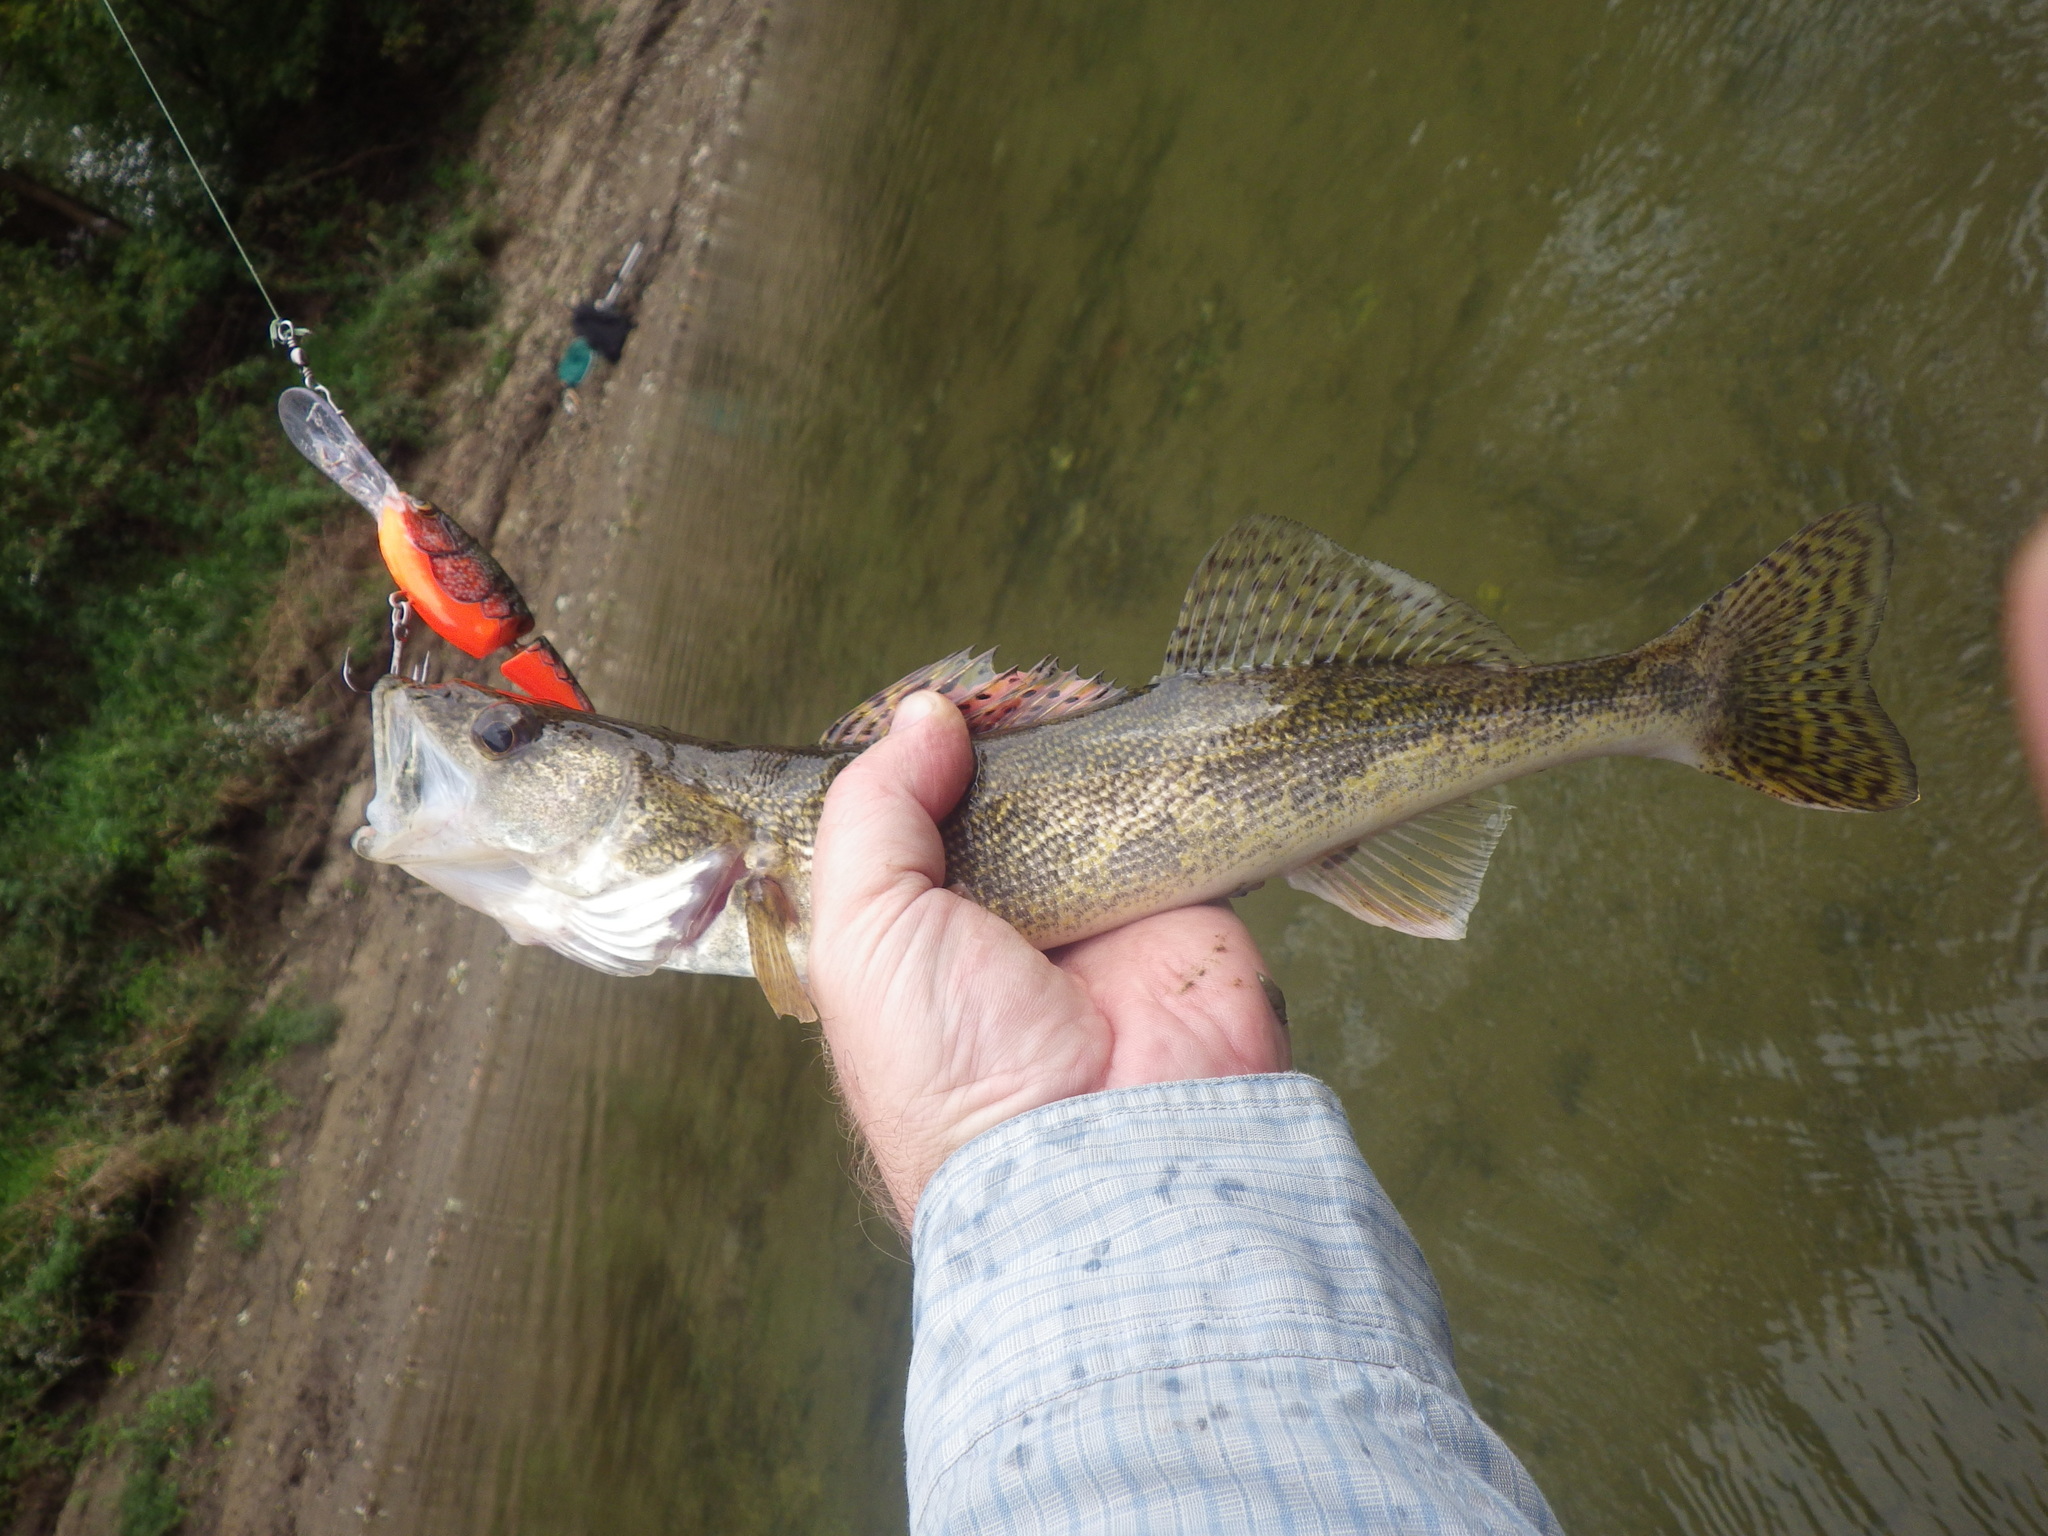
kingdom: Animalia
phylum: Chordata
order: Perciformes
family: Percidae
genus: Sander
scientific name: Sander canadensis
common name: Sauger
